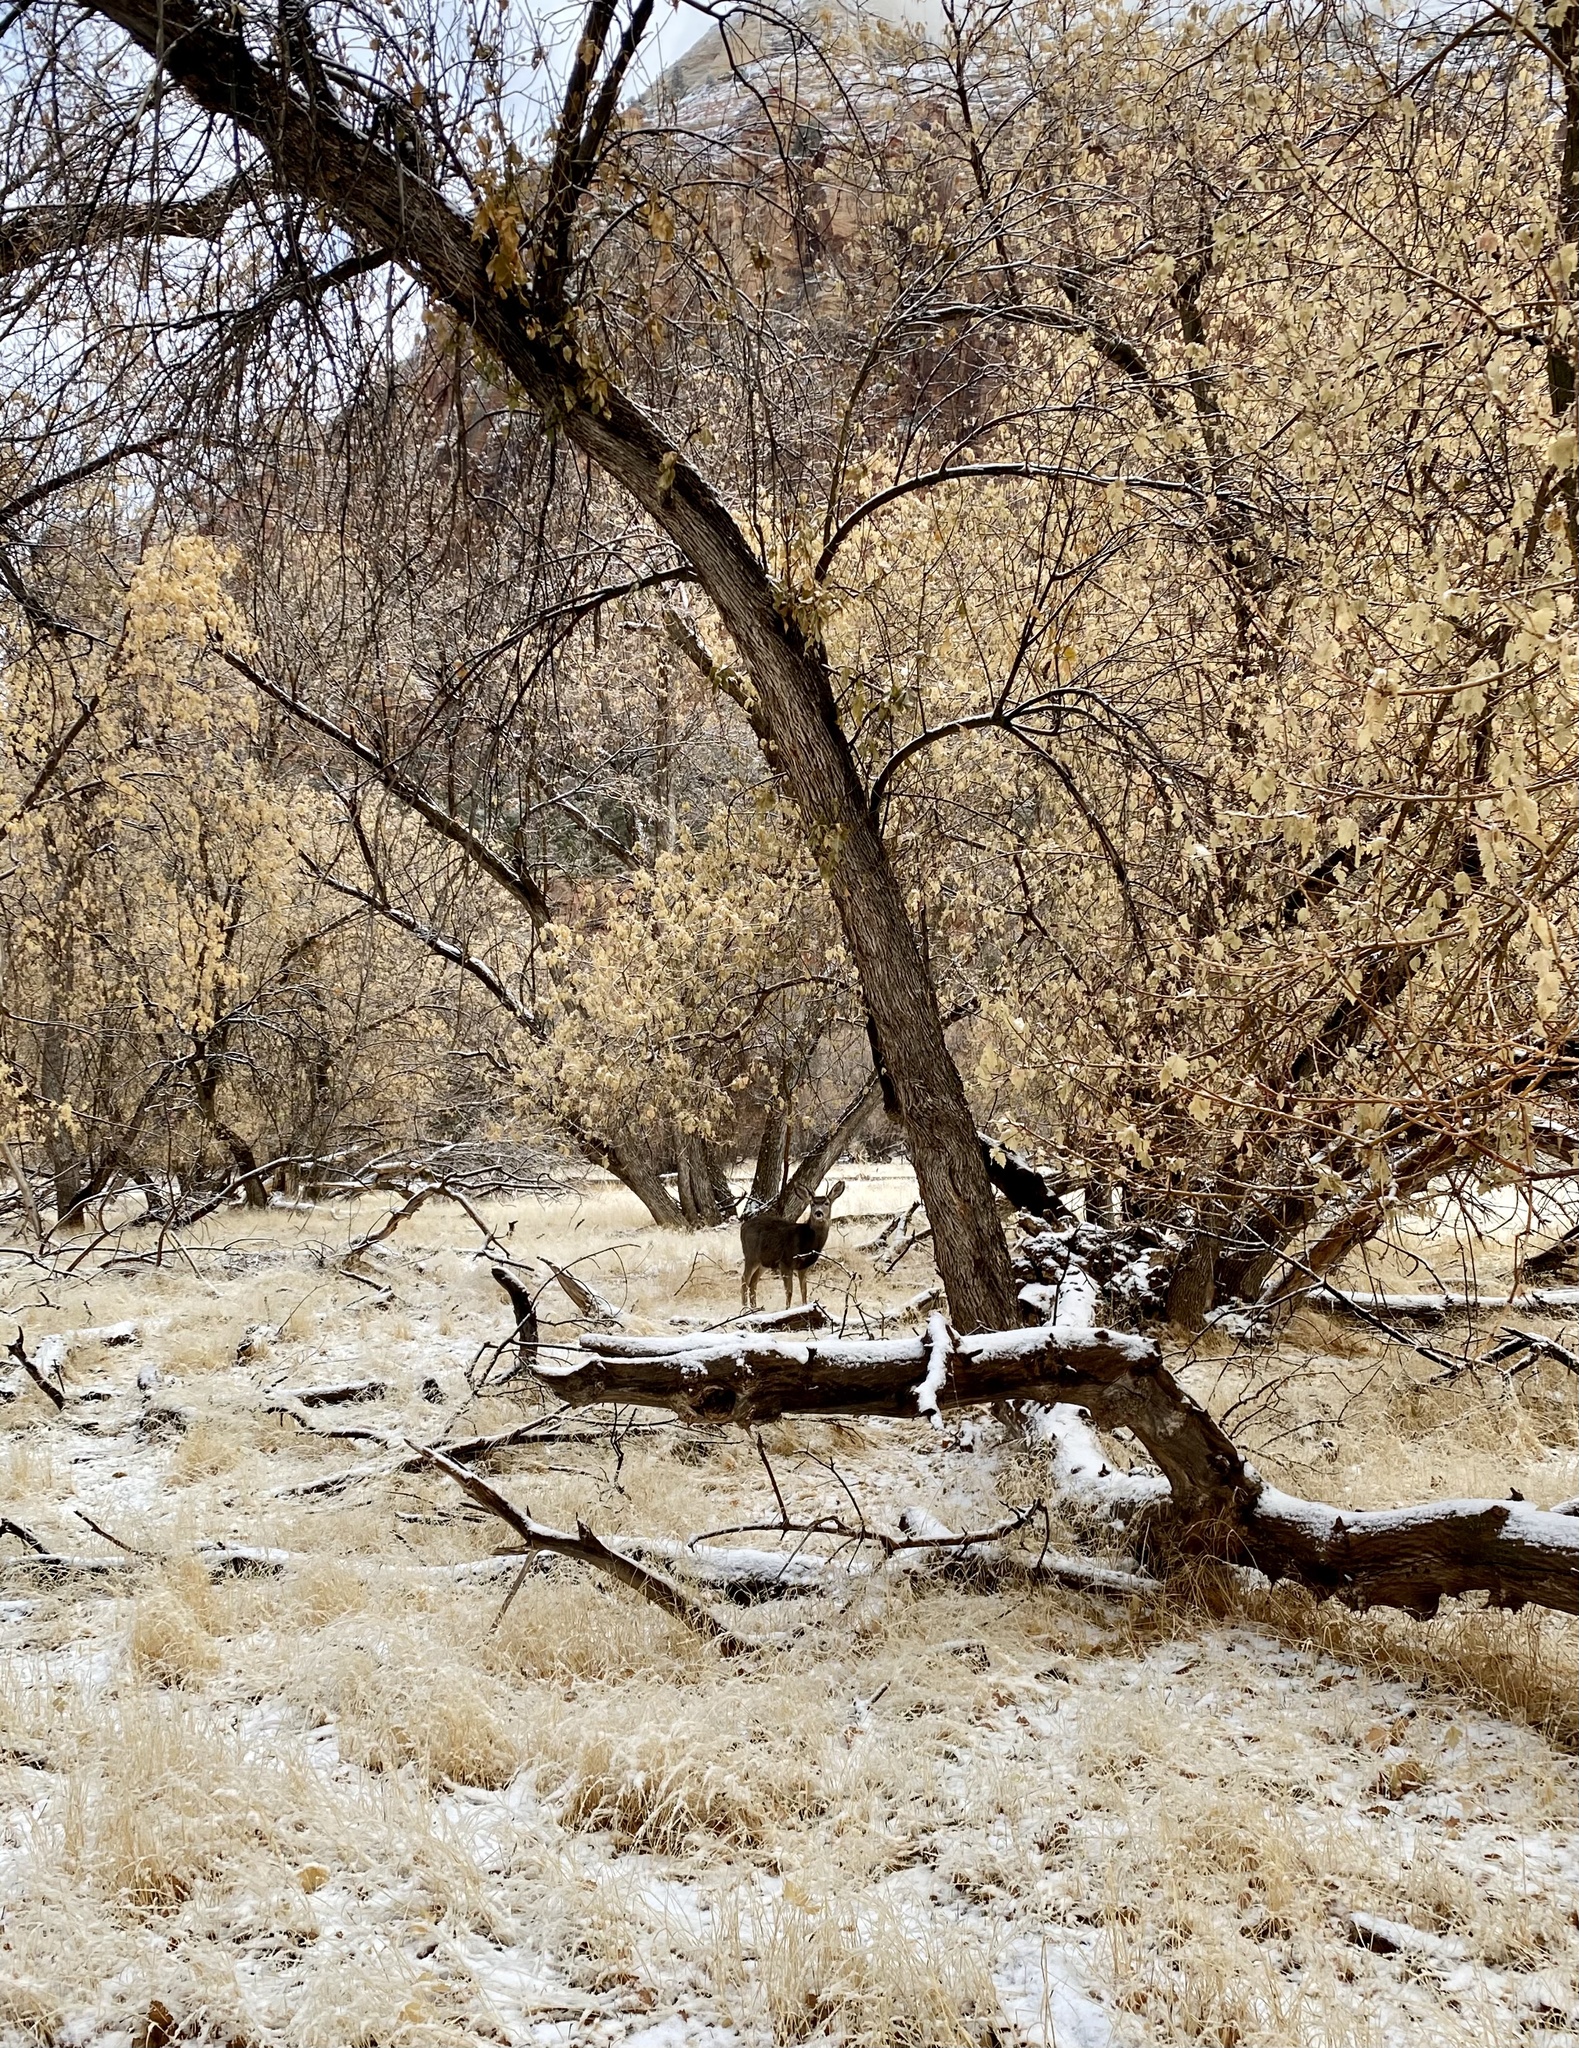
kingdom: Animalia
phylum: Chordata
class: Mammalia
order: Artiodactyla
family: Cervidae
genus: Odocoileus
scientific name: Odocoileus hemionus
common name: Mule deer
